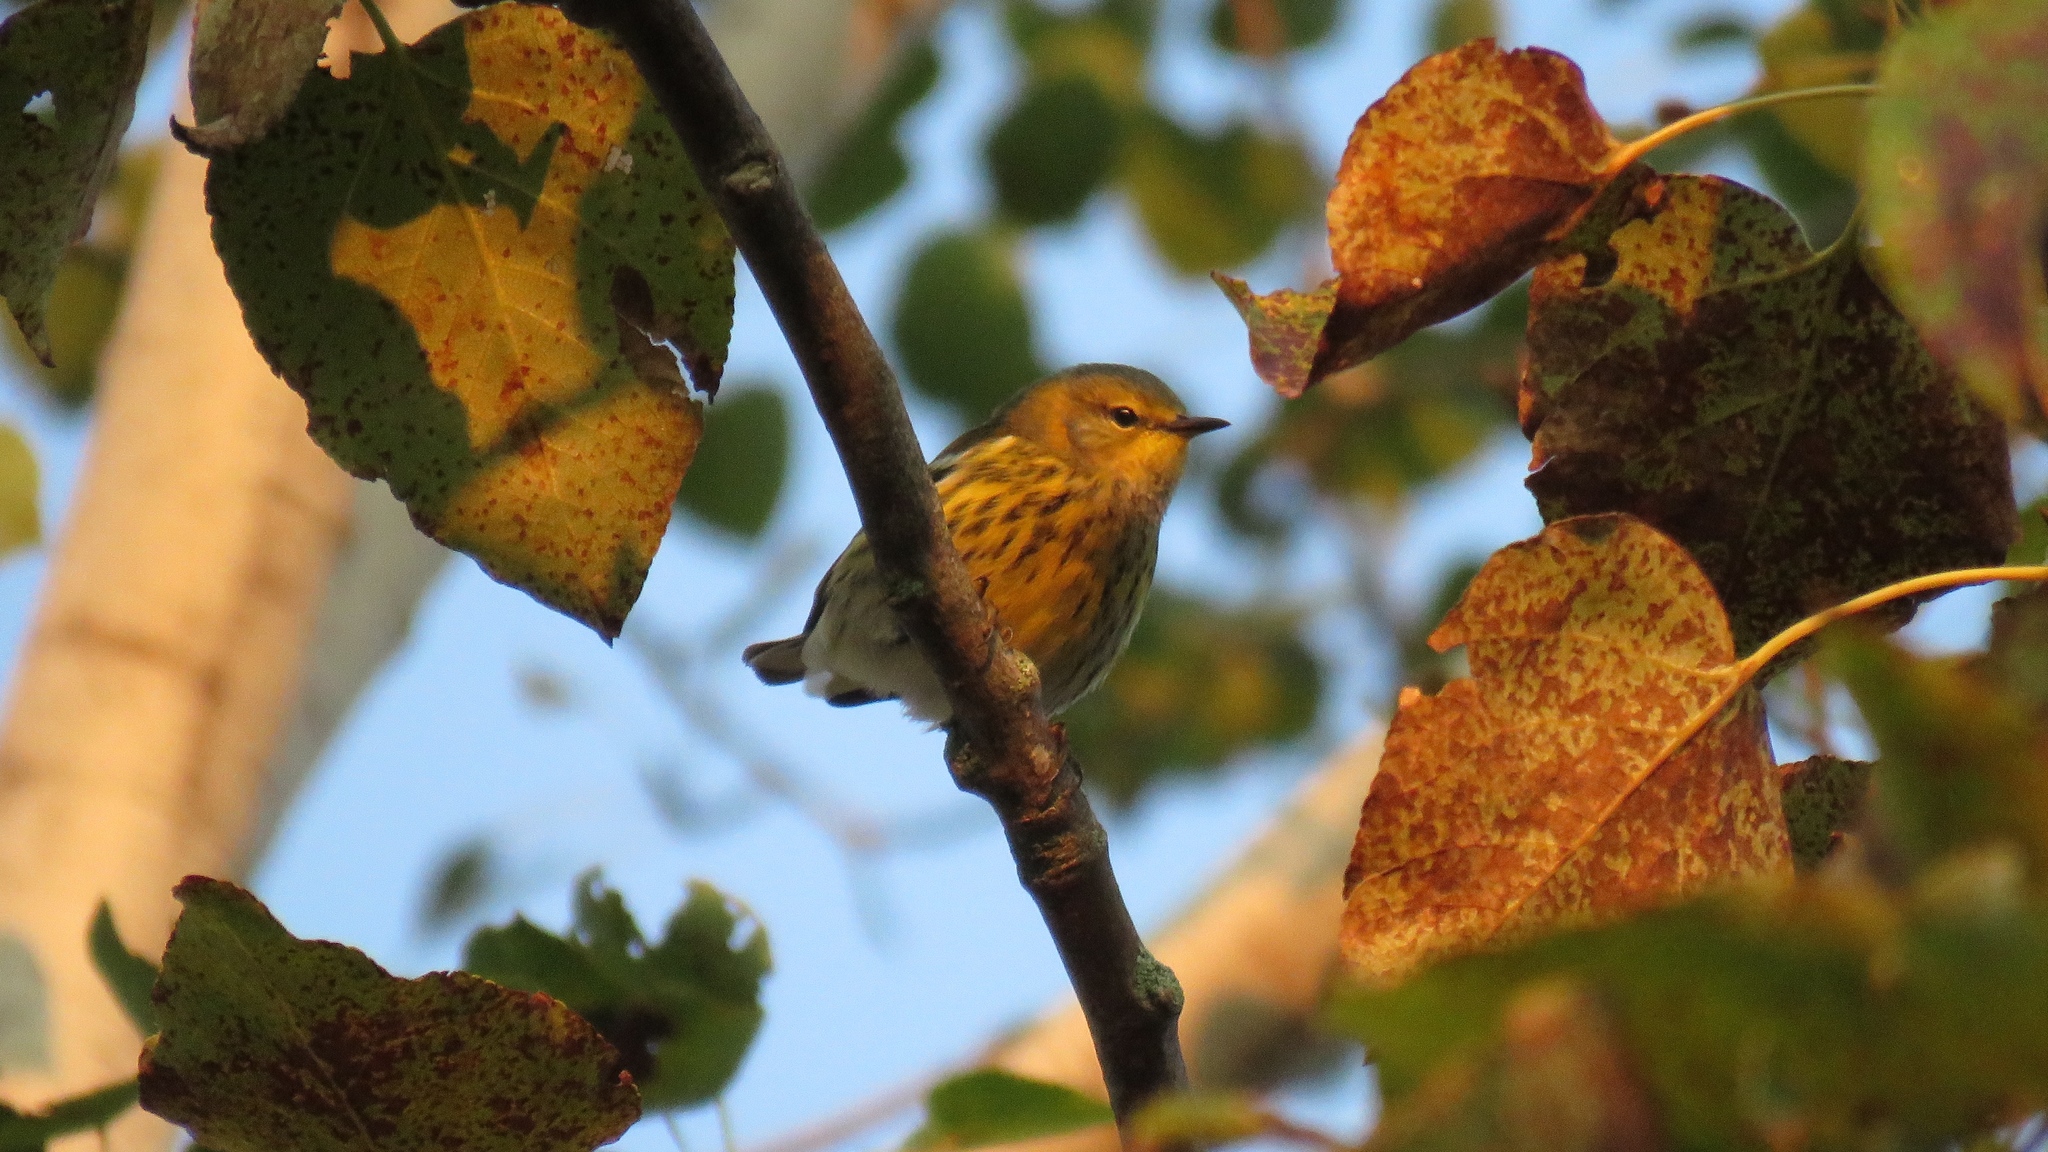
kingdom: Animalia
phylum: Chordata
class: Aves
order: Passeriformes
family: Parulidae
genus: Setophaga
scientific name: Setophaga tigrina
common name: Cape may warbler
